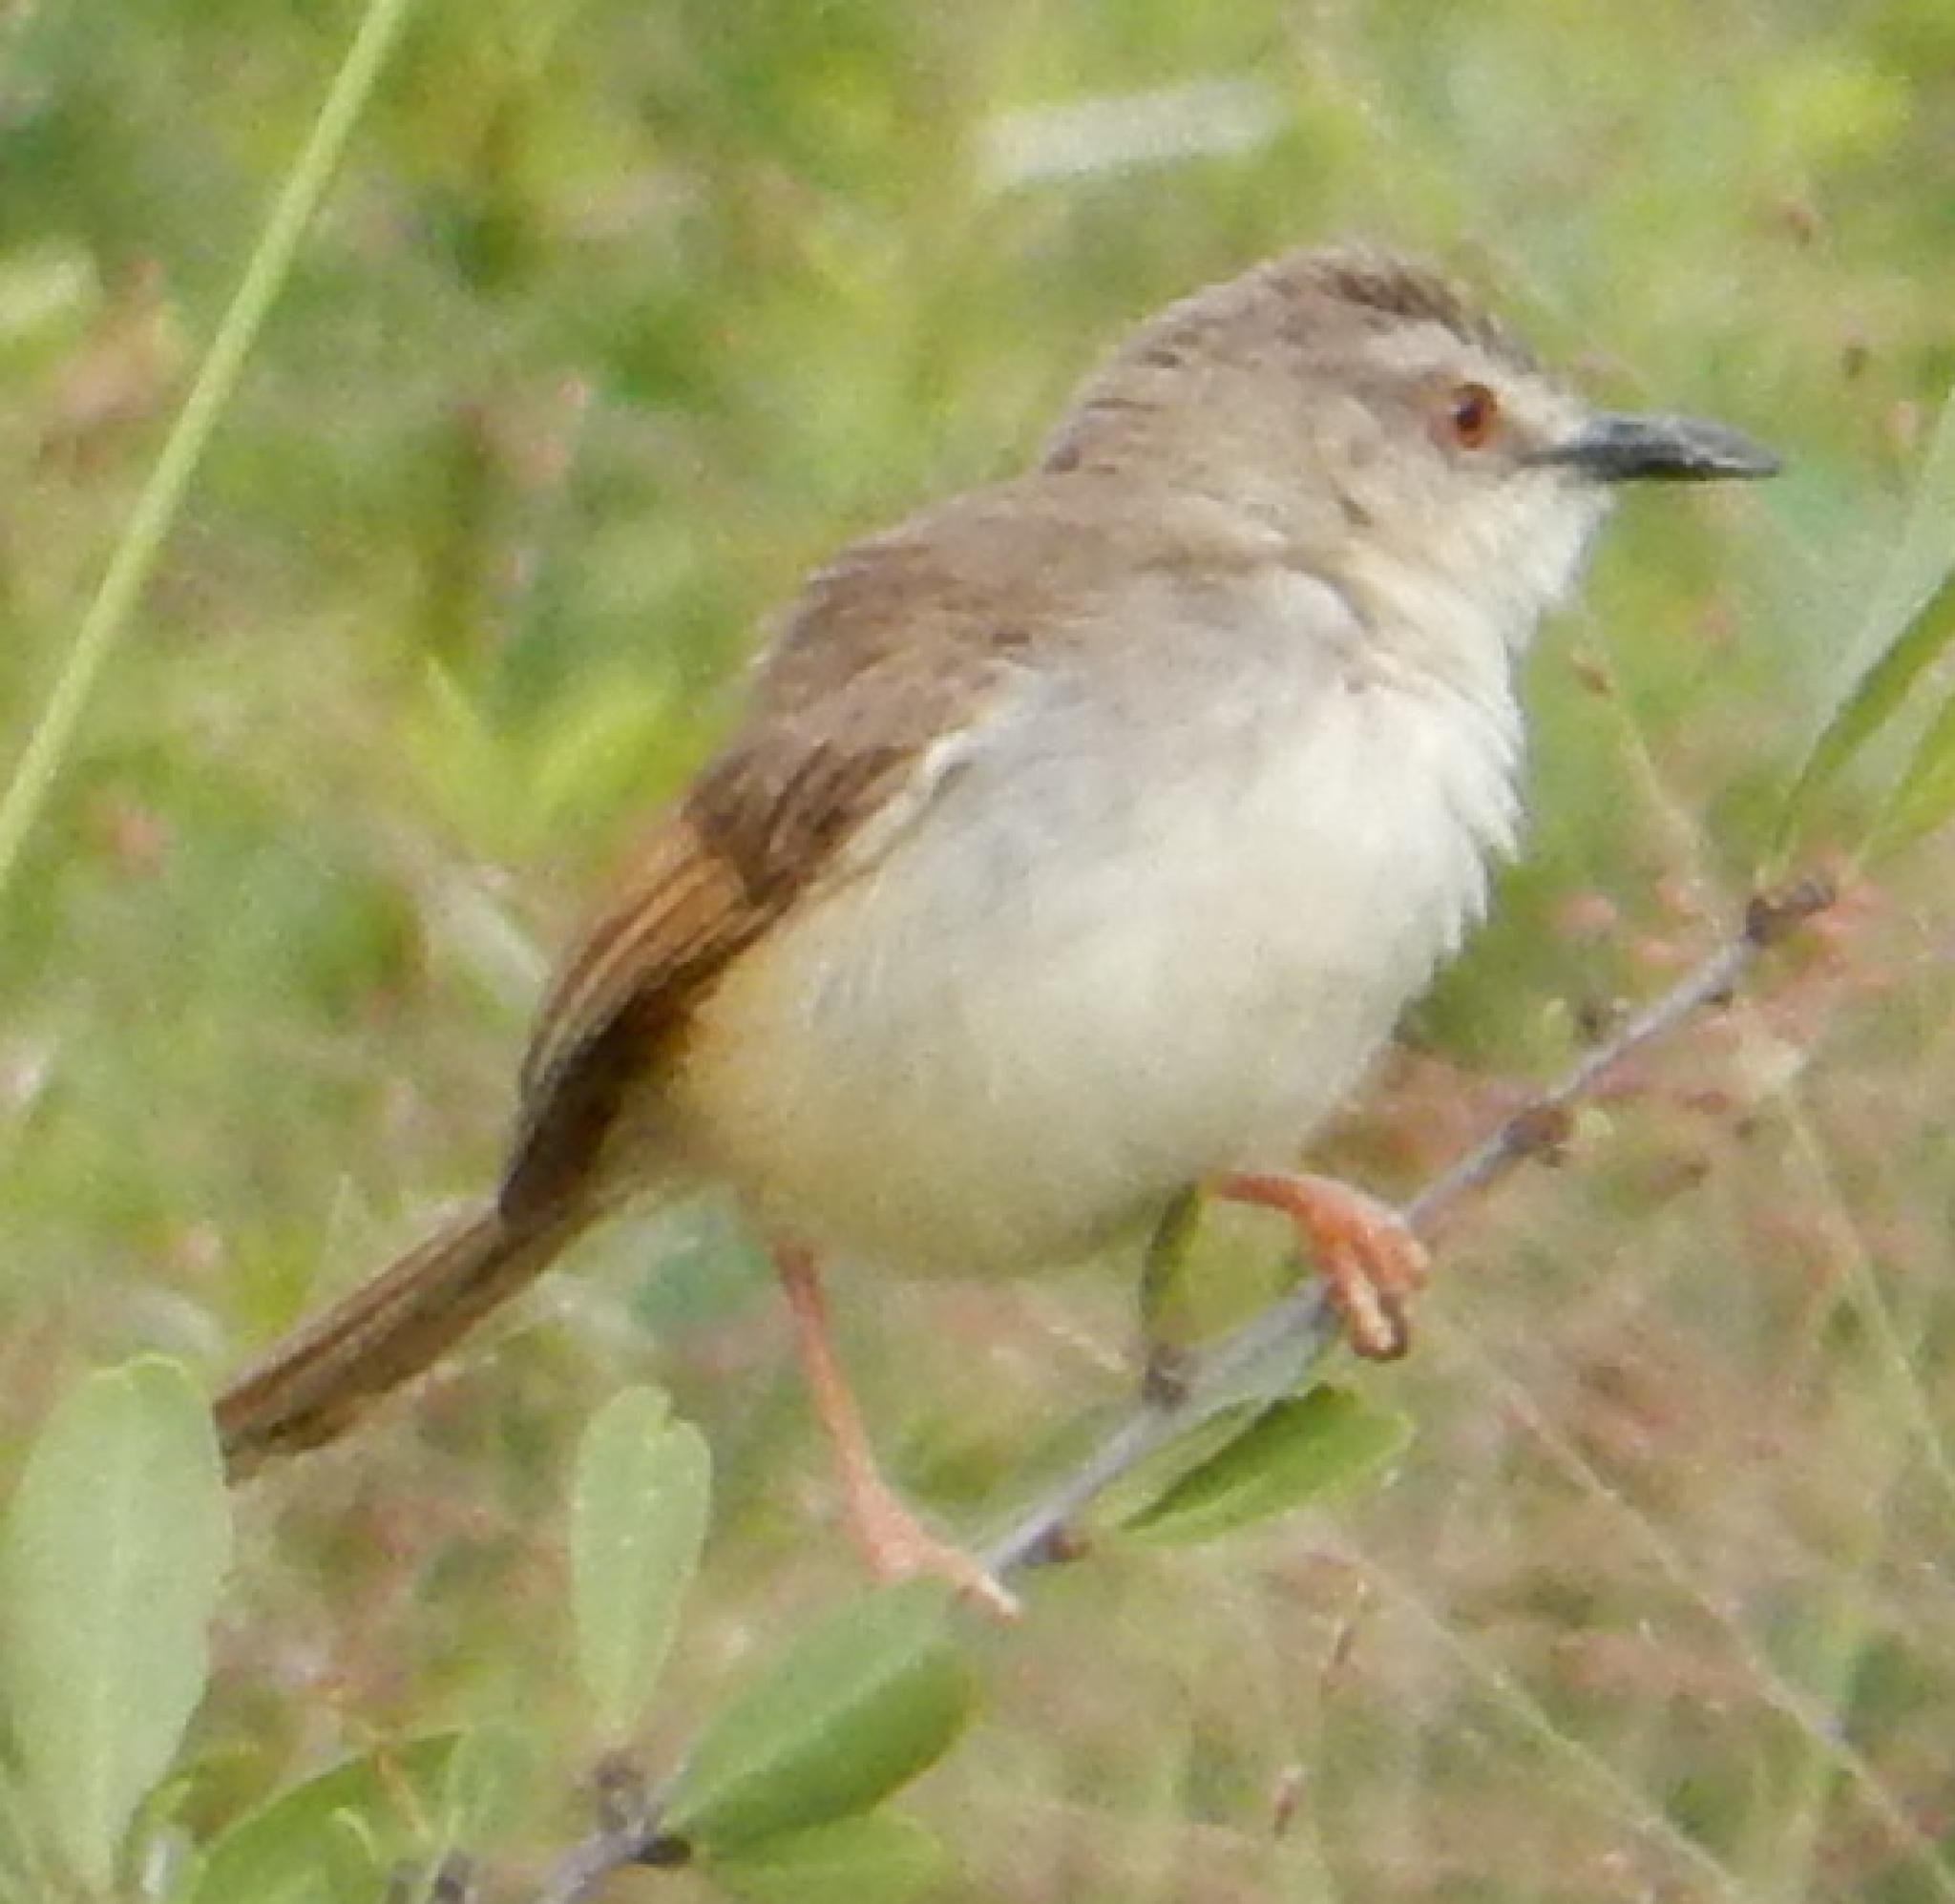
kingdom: Animalia
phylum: Chordata
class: Aves
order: Passeriformes
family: Cisticolidae
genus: Prinia
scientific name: Prinia subflava
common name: Tawny-flanked prinia
